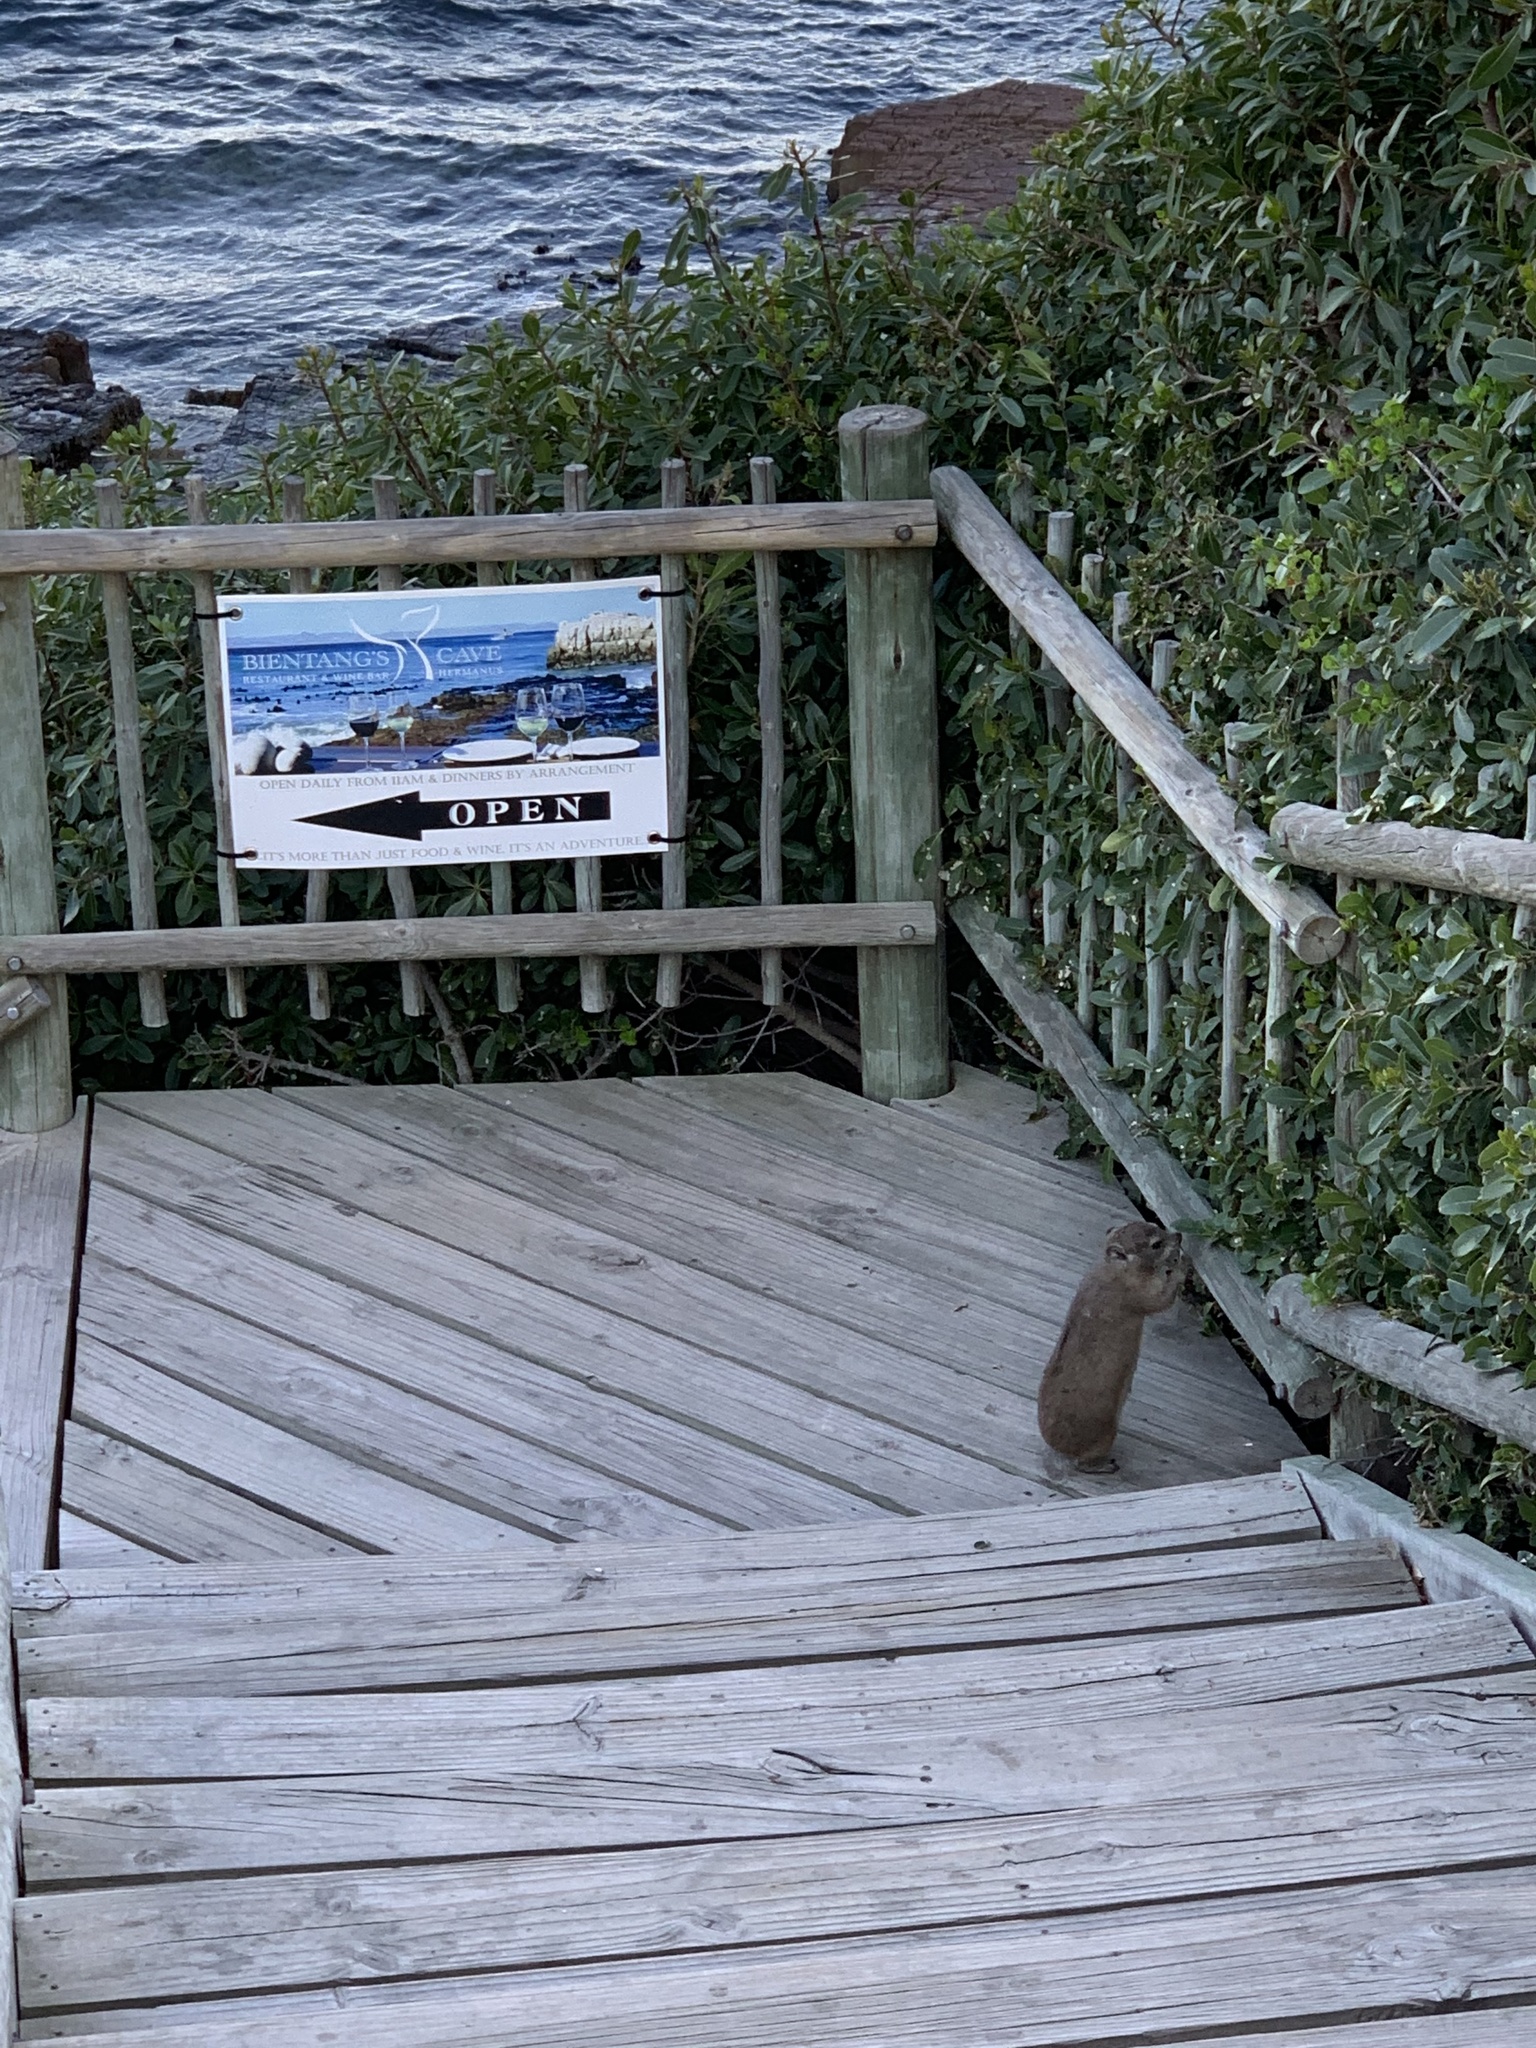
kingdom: Animalia
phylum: Chordata
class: Mammalia
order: Hyracoidea
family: Procaviidae
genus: Procavia
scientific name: Procavia capensis
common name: Rock hyrax
